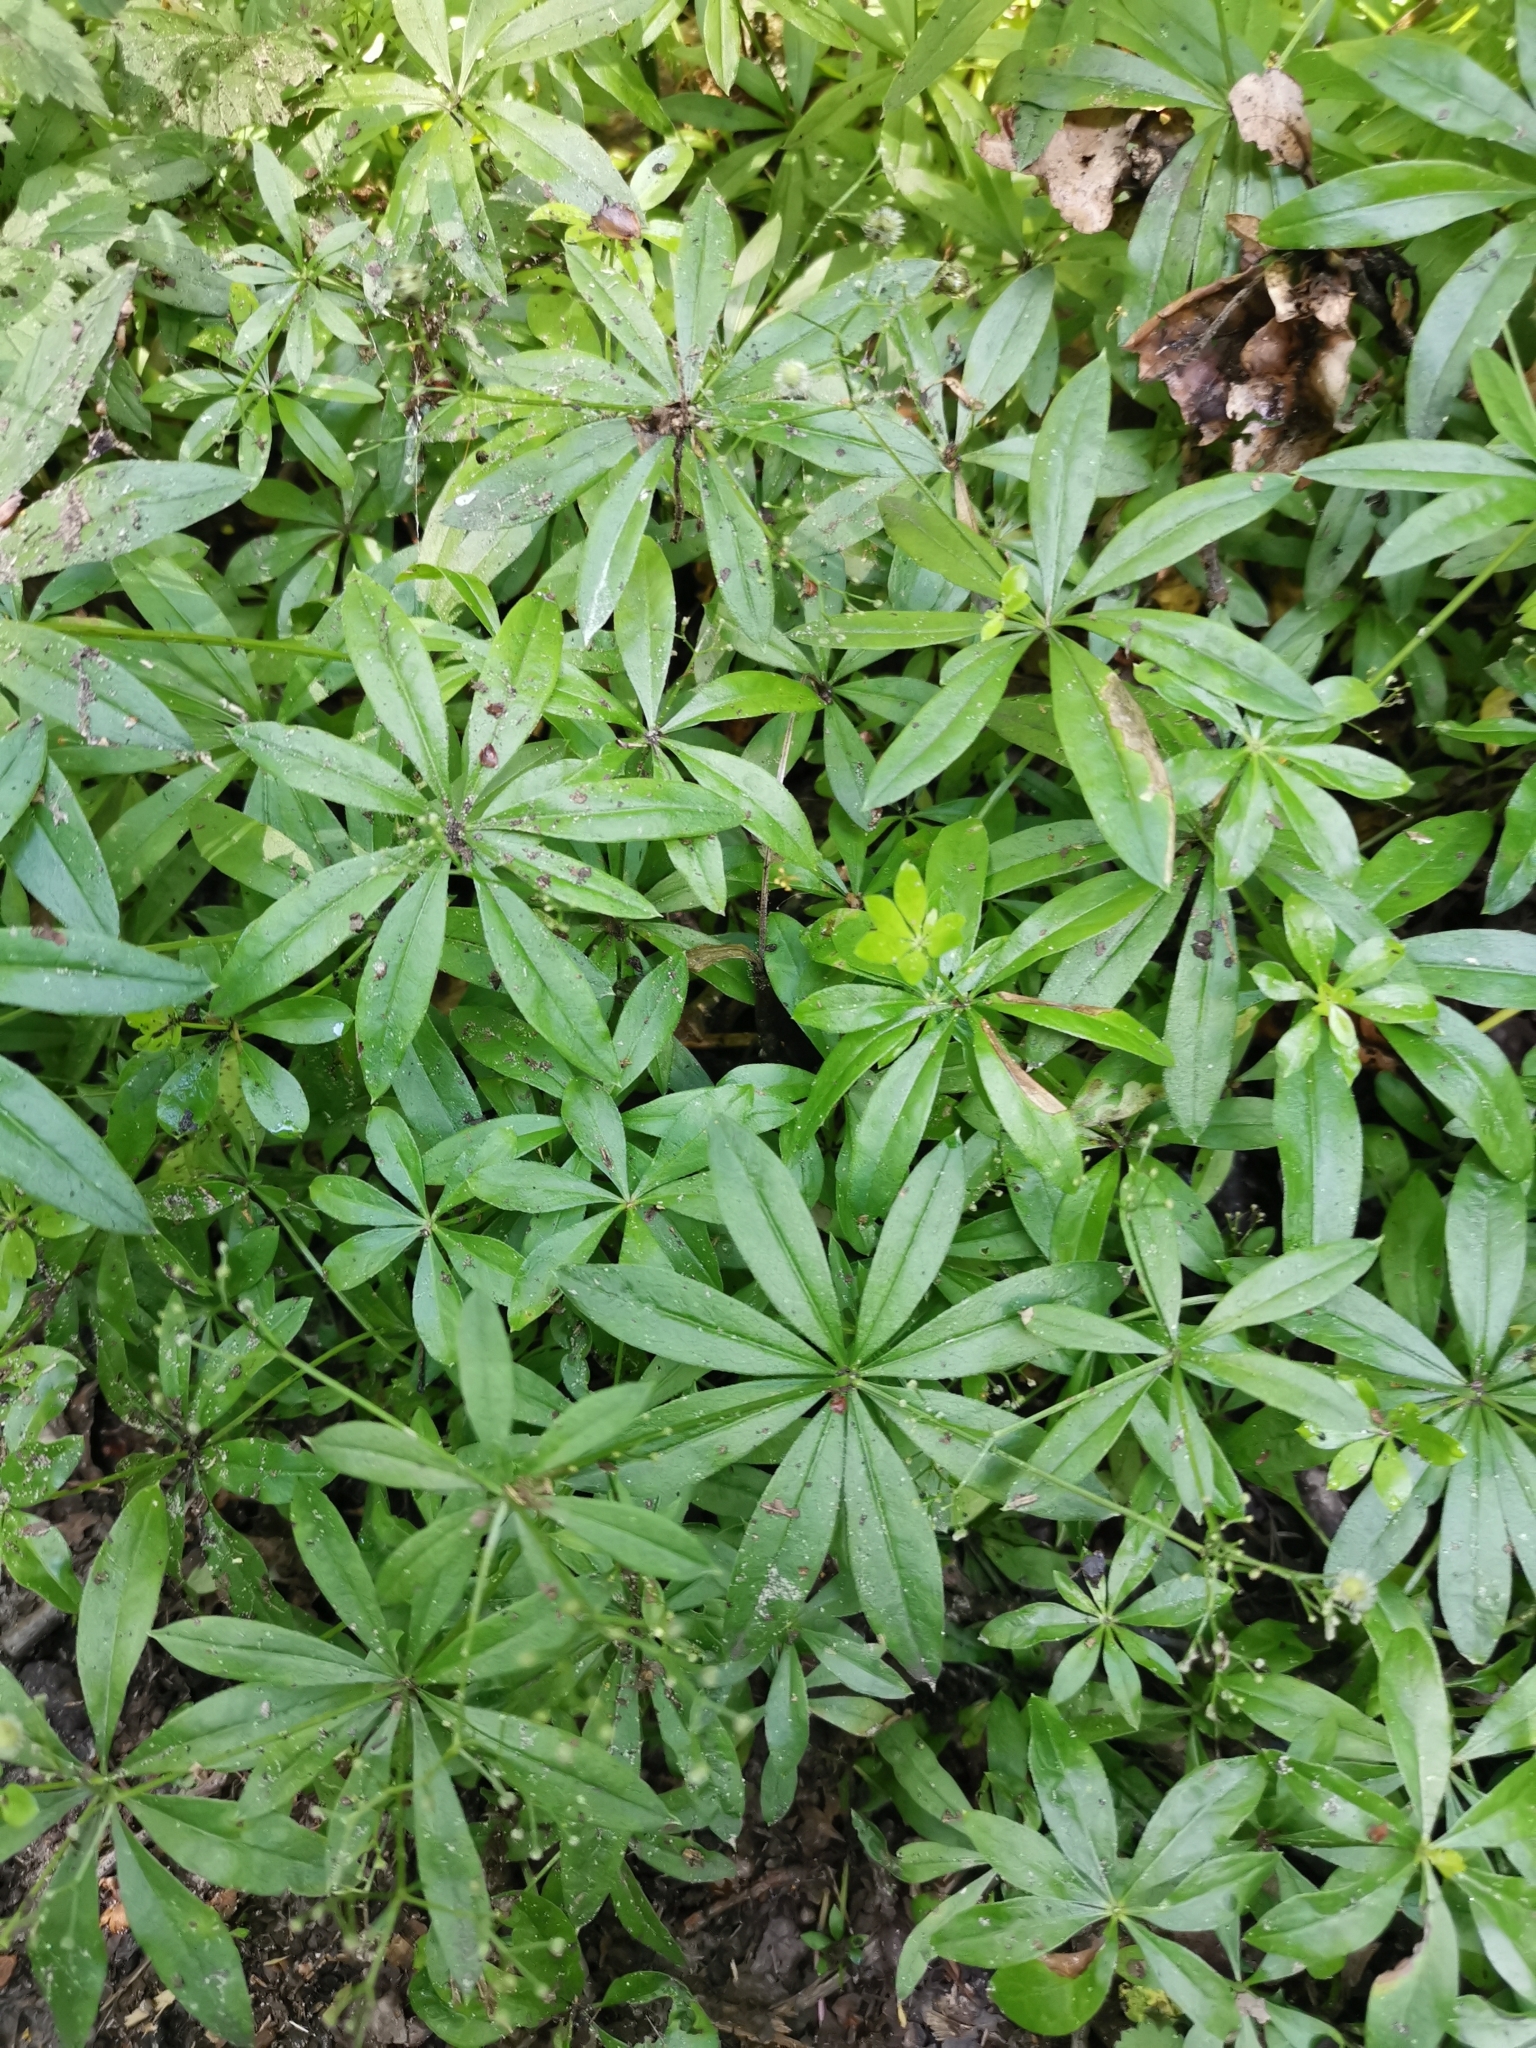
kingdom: Plantae
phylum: Tracheophyta
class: Magnoliopsida
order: Gentianales
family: Rubiaceae
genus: Galium
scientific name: Galium odoratum
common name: Sweet woodruff
